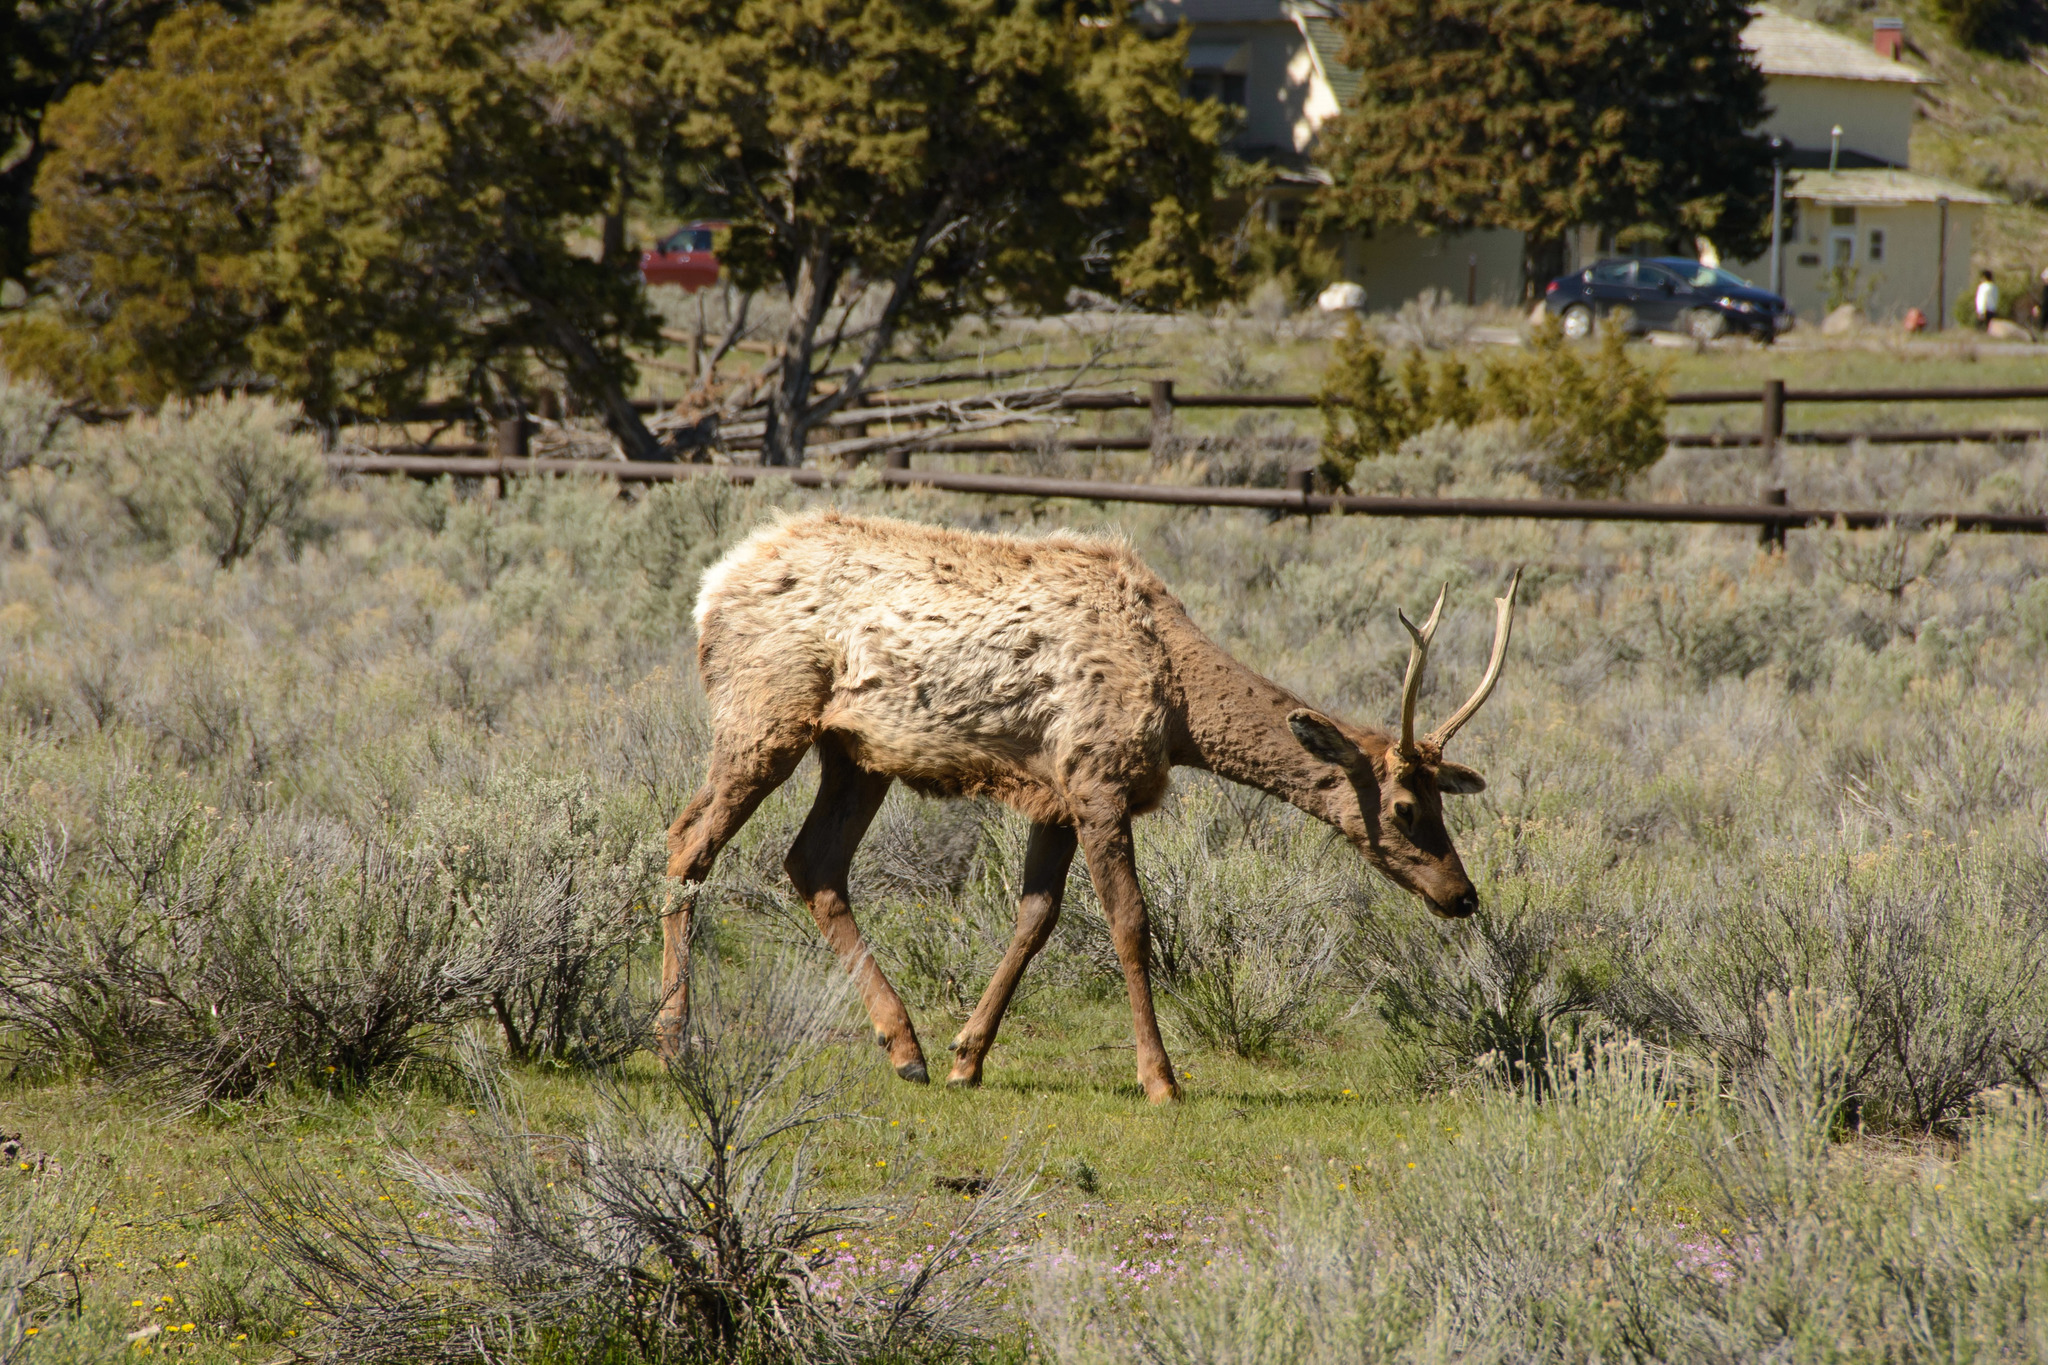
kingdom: Animalia
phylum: Chordata
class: Mammalia
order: Artiodactyla
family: Cervidae
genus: Cervus
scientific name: Cervus elaphus
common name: Red deer
